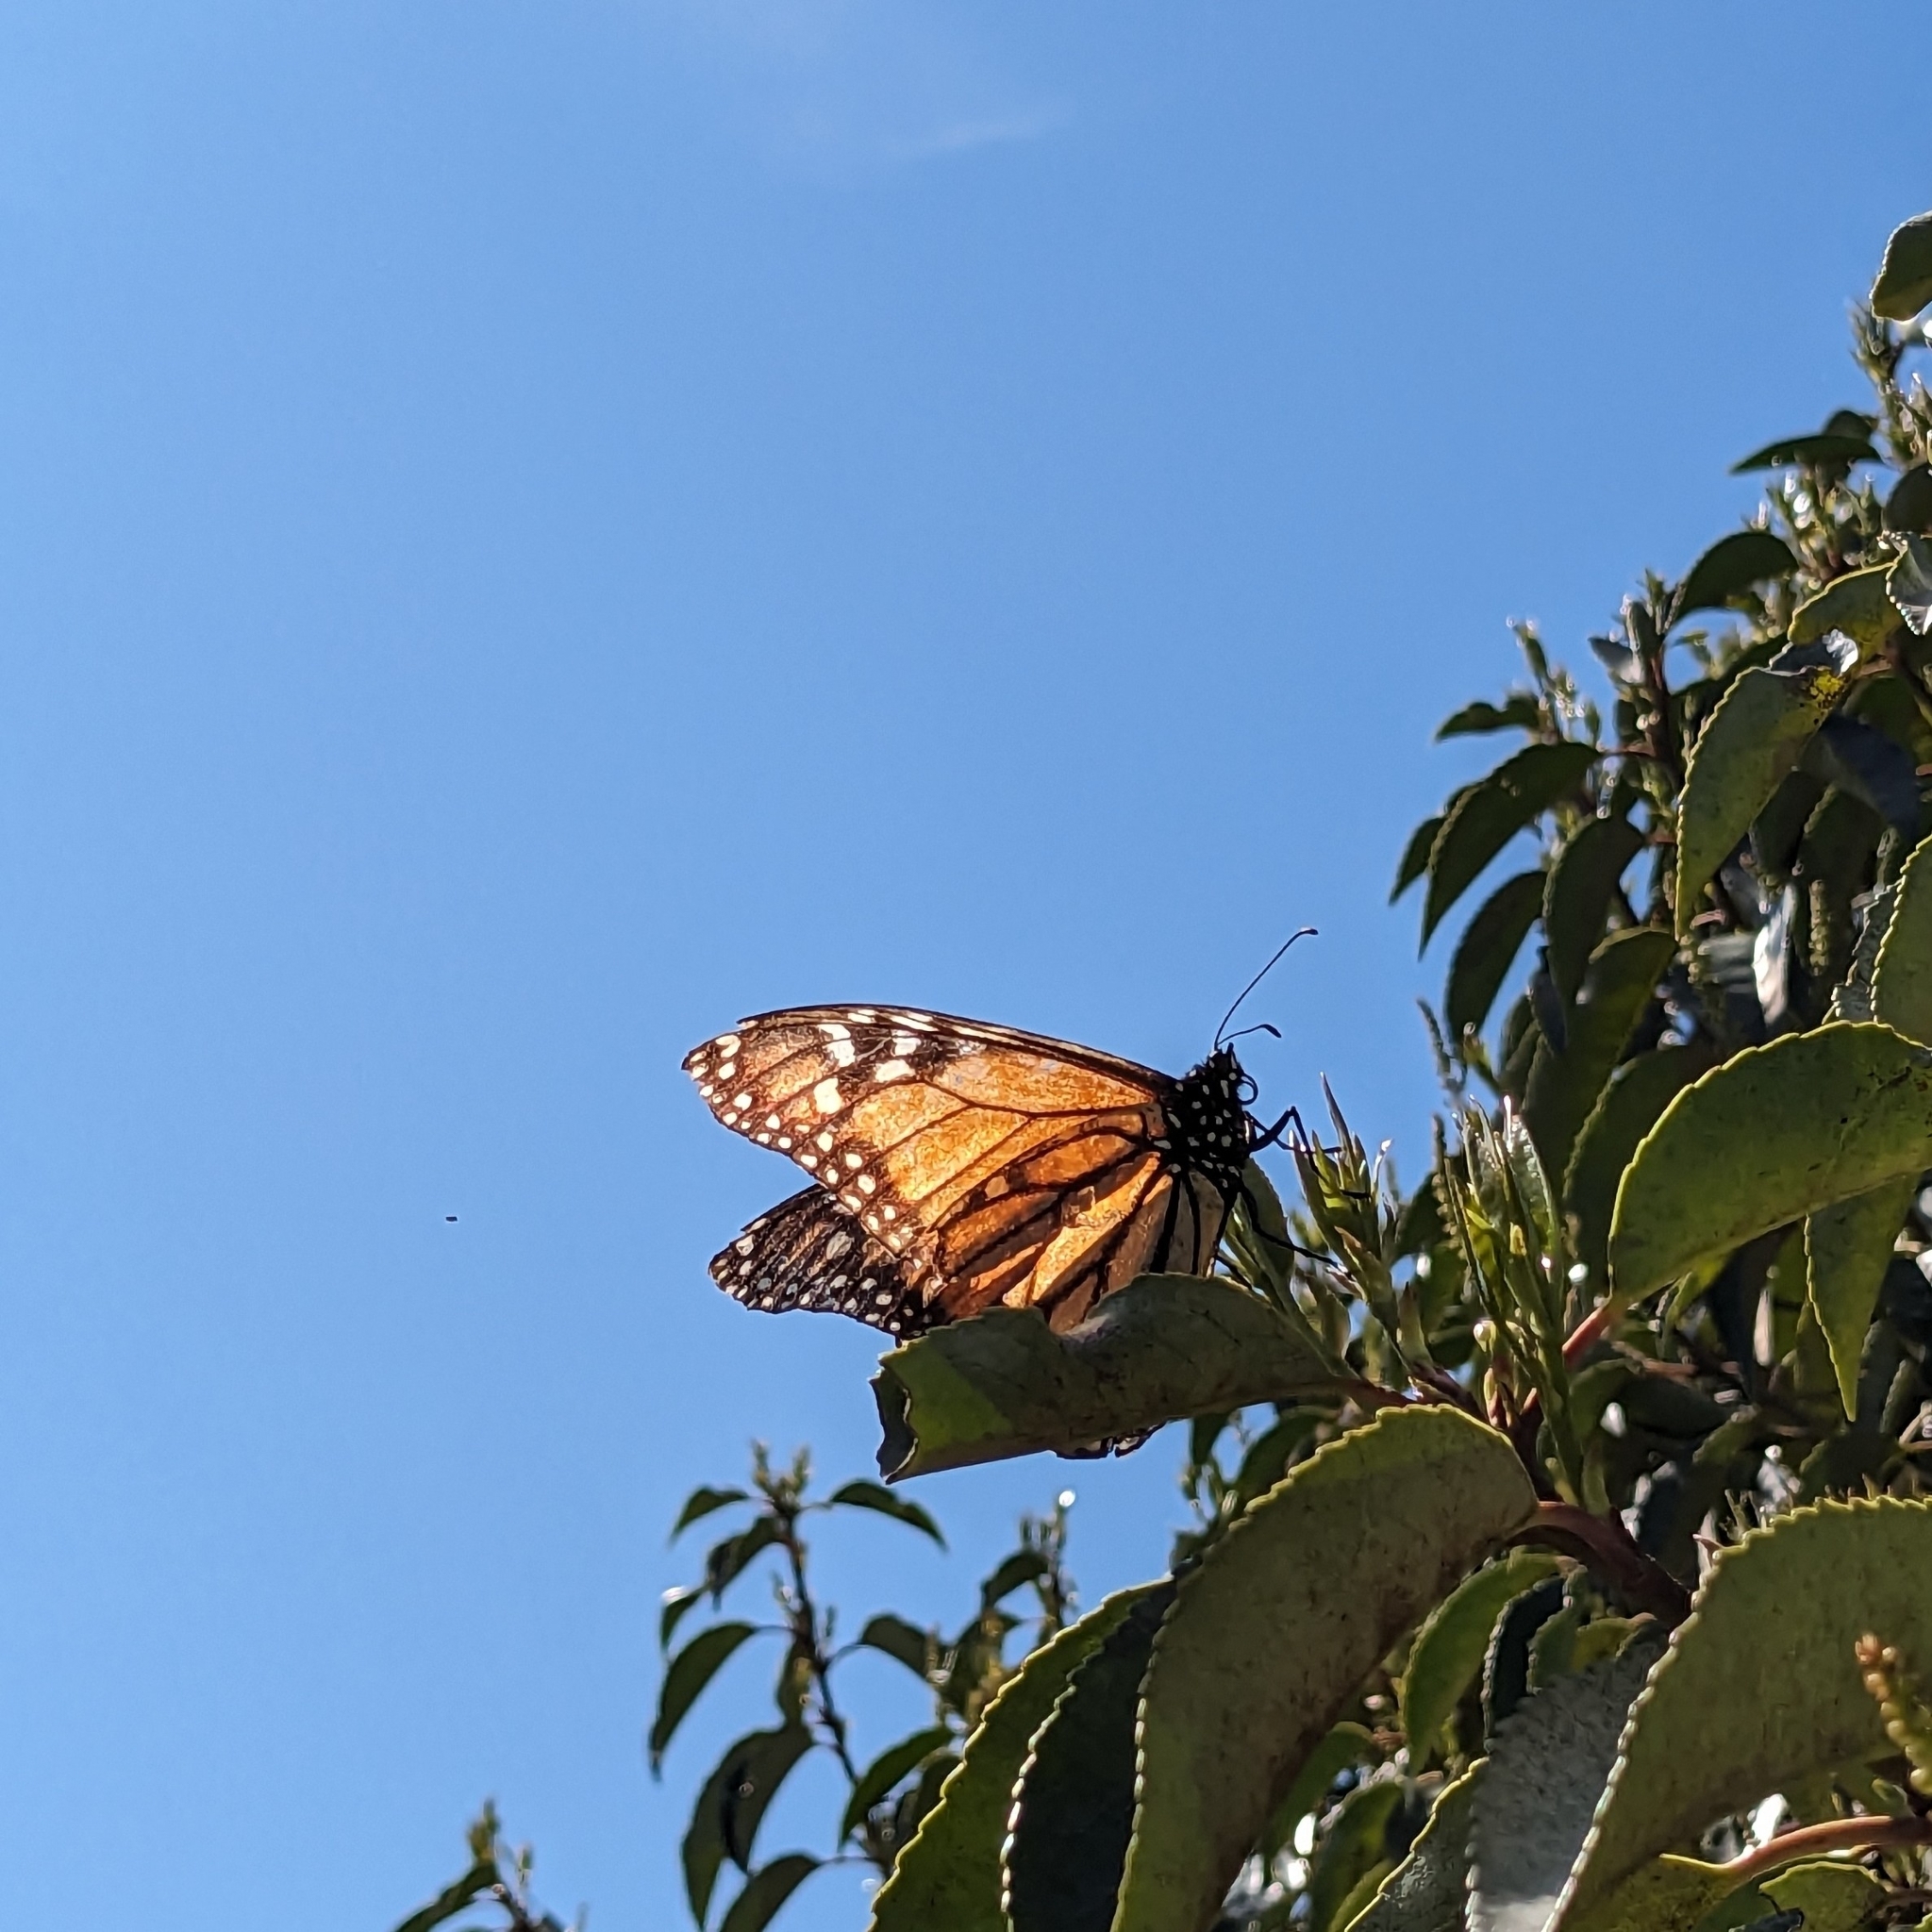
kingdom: Animalia
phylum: Arthropoda
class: Insecta
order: Lepidoptera
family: Nymphalidae
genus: Danaus
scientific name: Danaus plexippus
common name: Monarch
